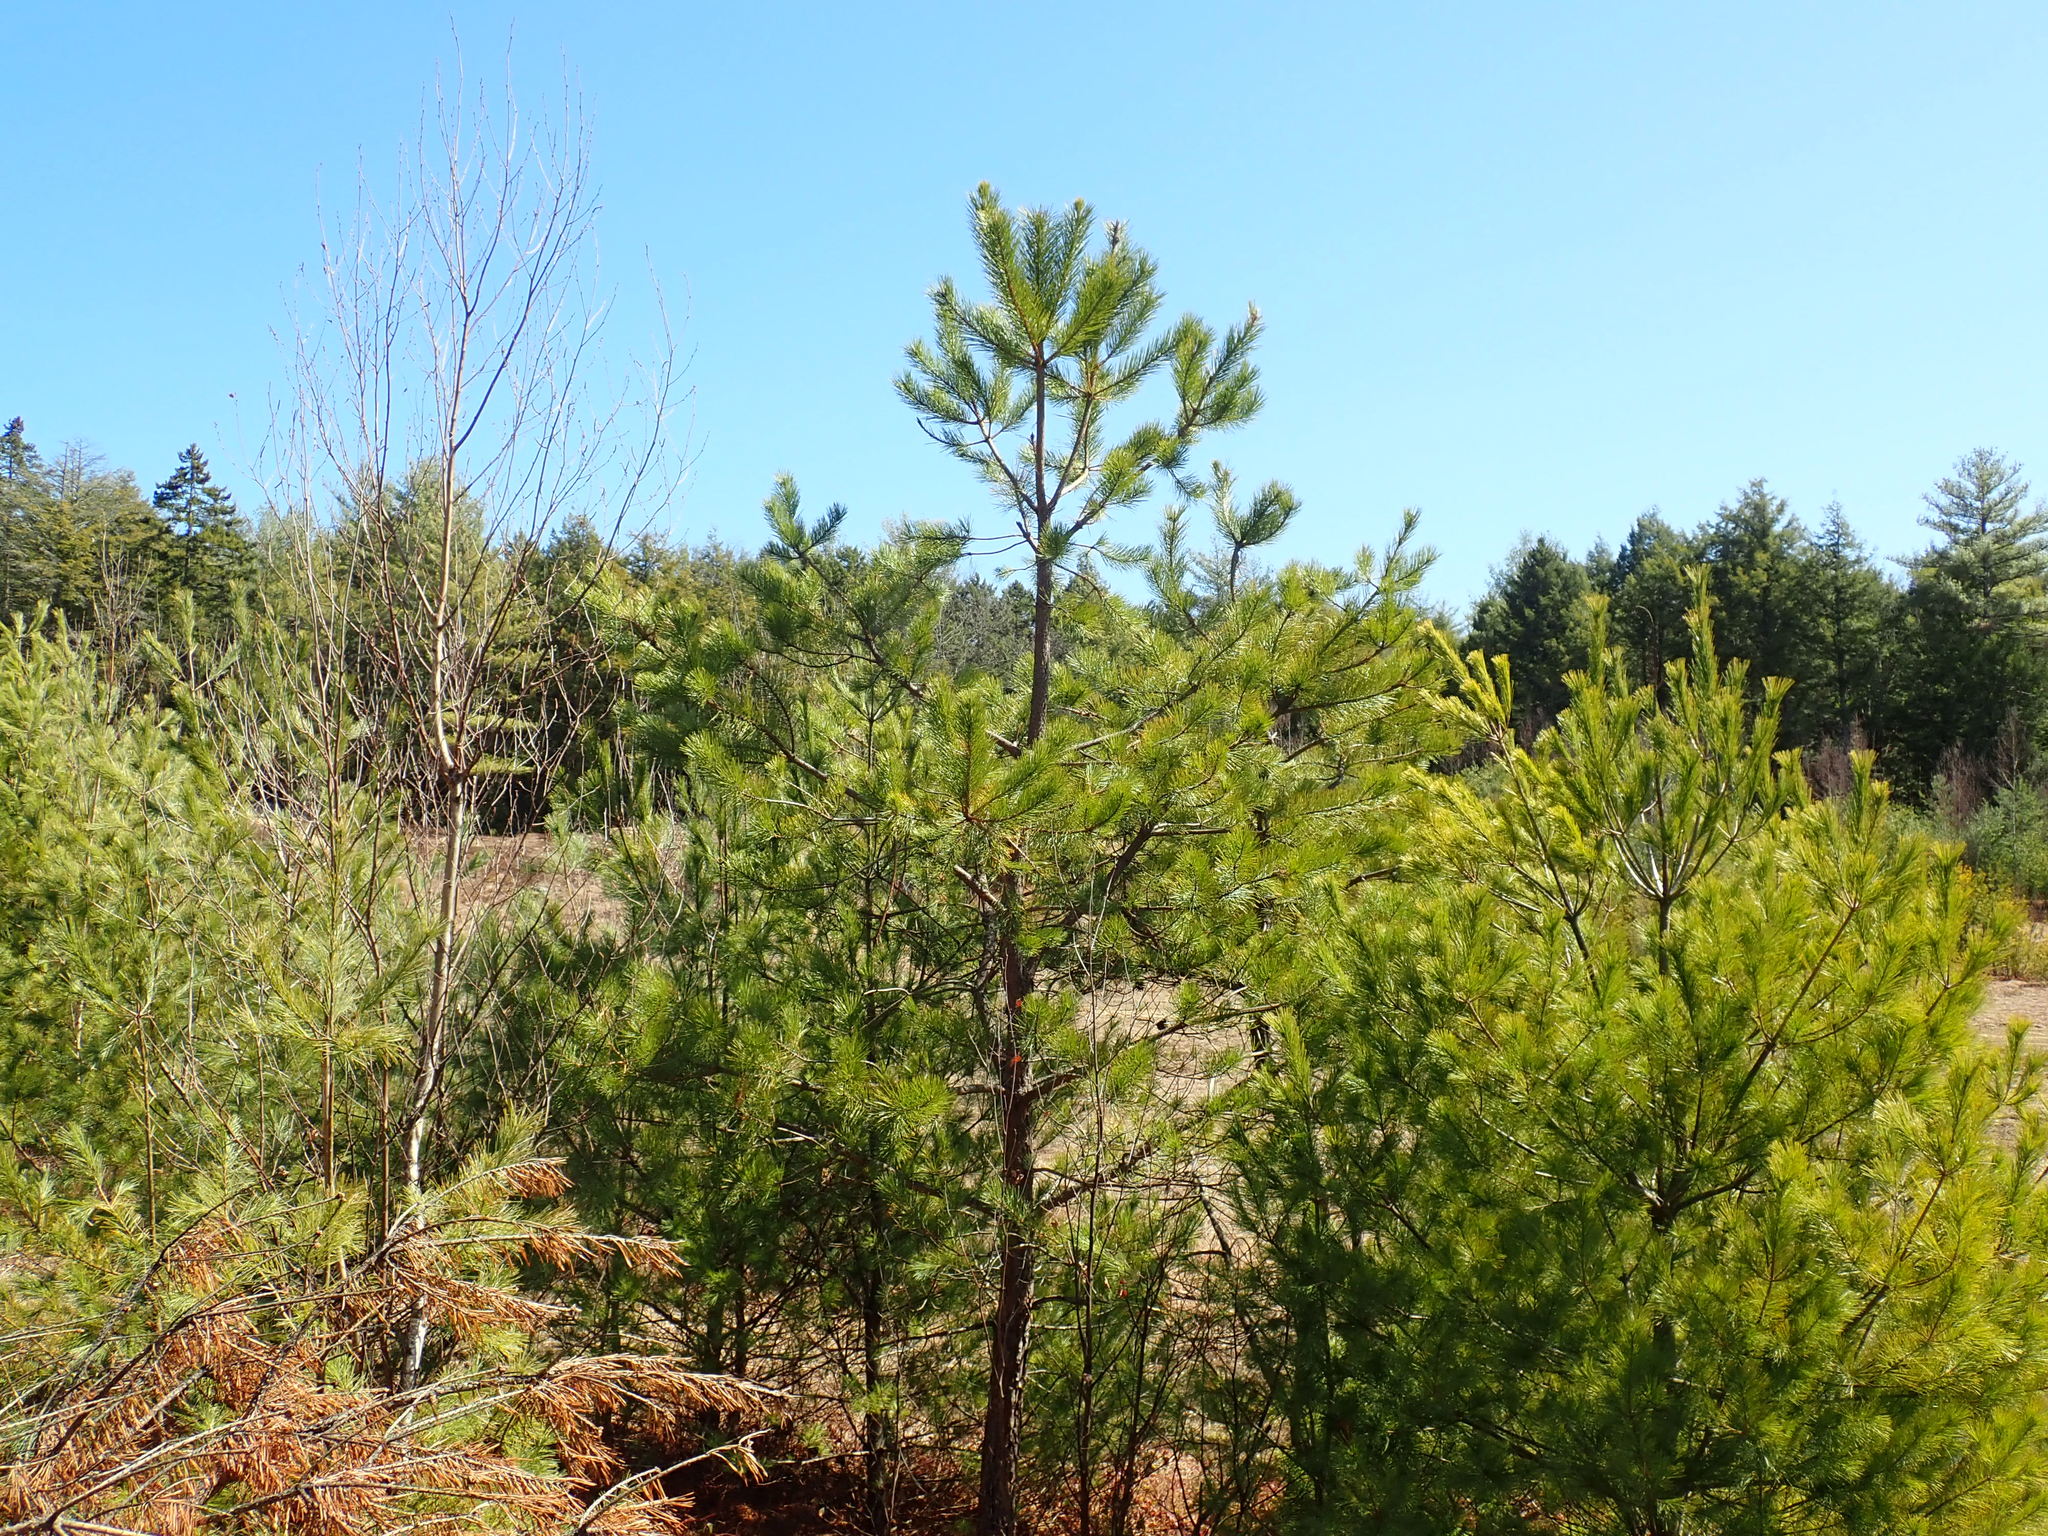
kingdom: Plantae
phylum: Tracheophyta
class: Pinopsida
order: Pinales
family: Pinaceae
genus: Pinus
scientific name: Pinus rigida
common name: Pitch pine
